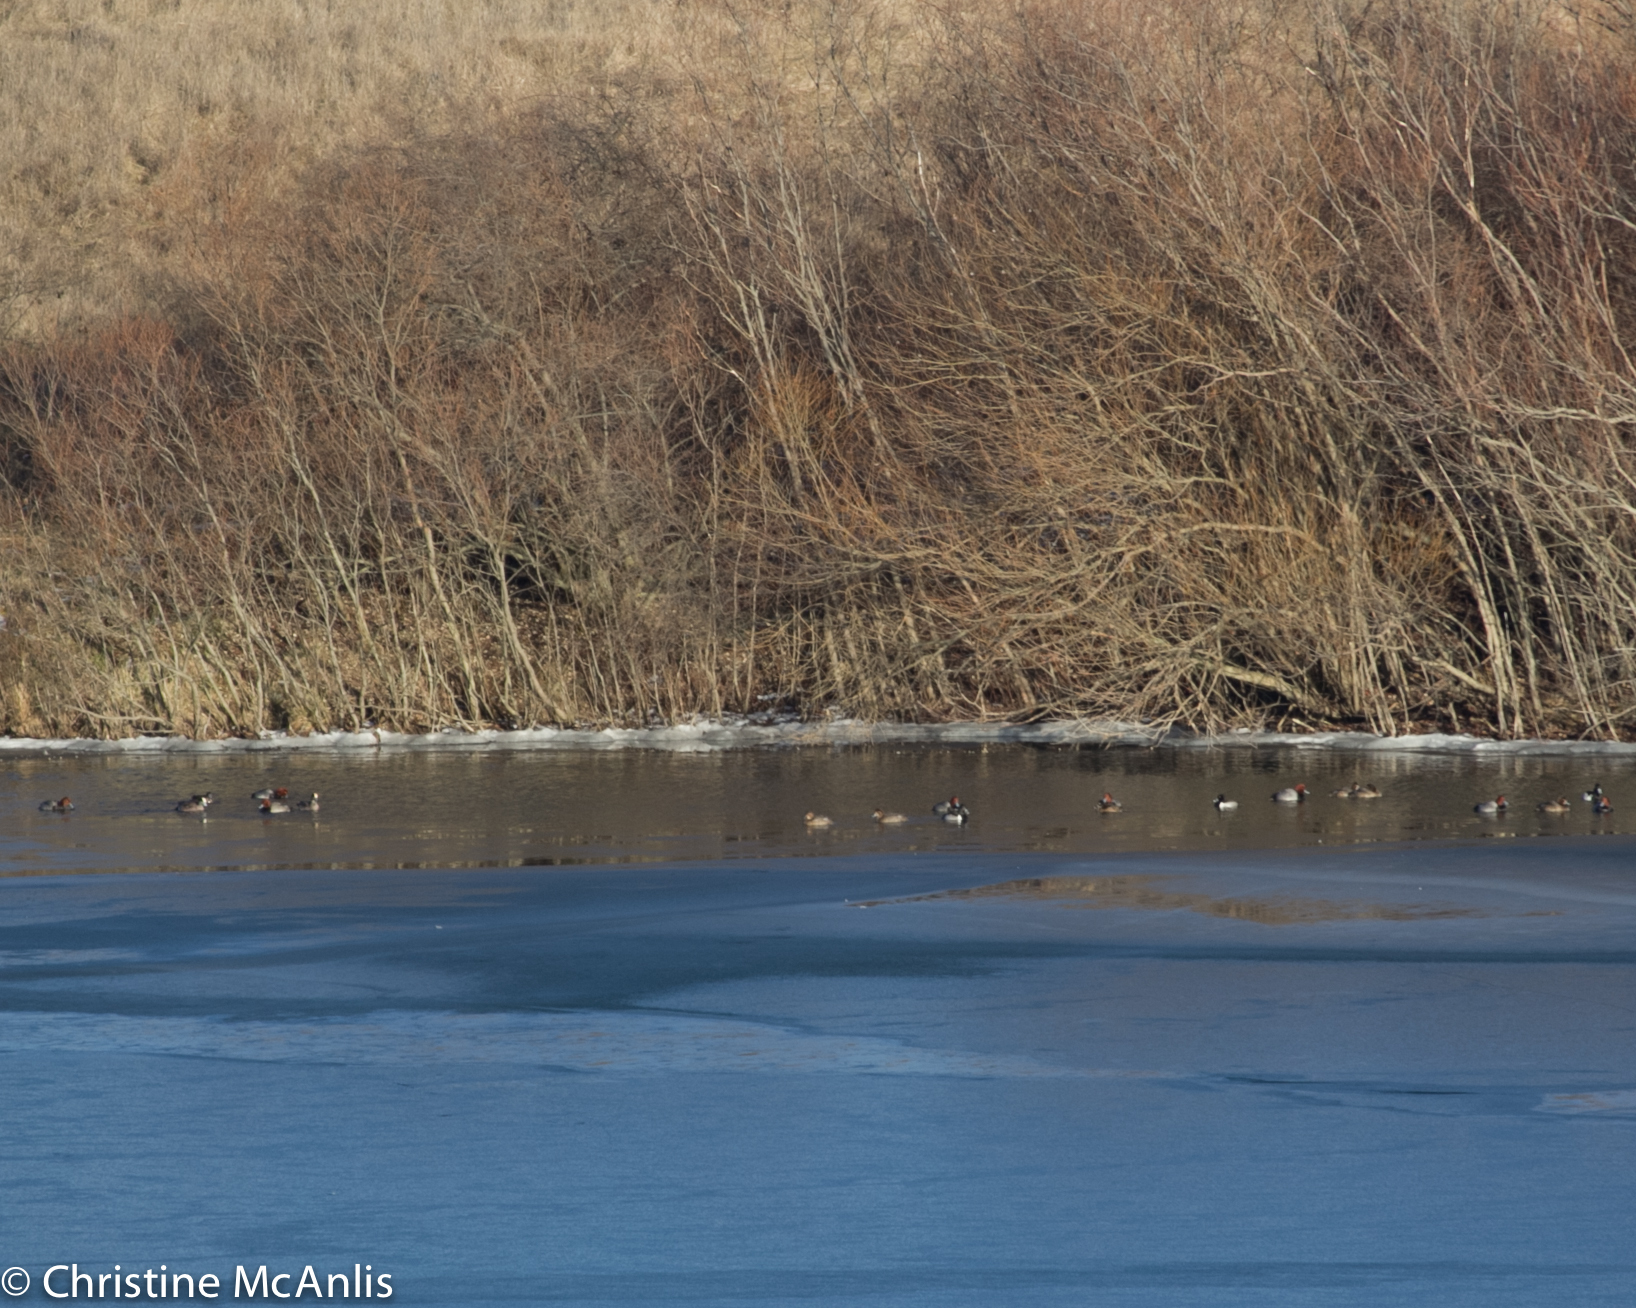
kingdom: Animalia
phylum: Chordata
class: Aves
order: Anseriformes
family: Anatidae
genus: Aythya
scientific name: Aythya americana
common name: Redhead
